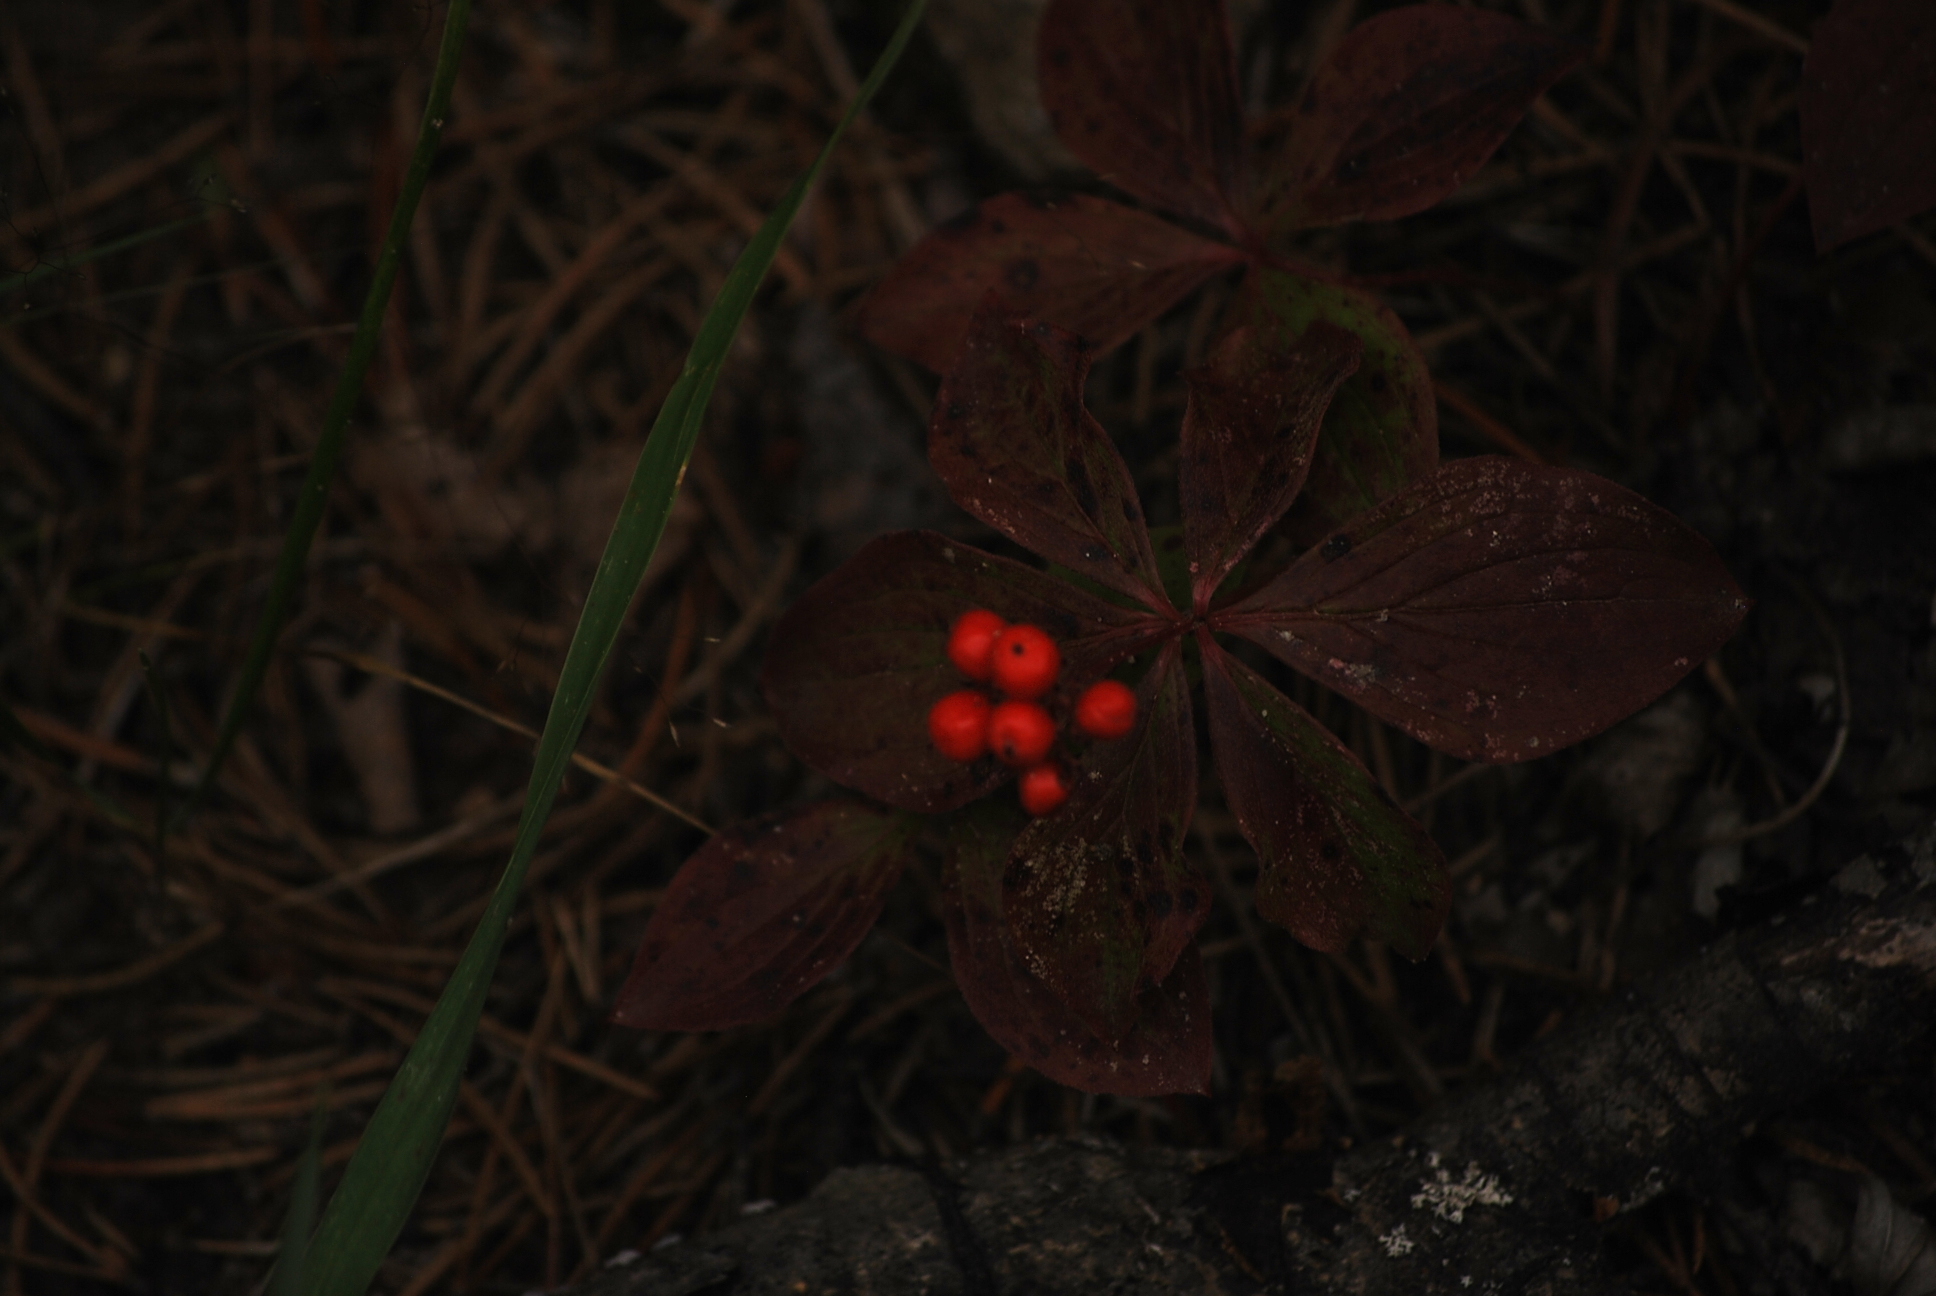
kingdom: Plantae
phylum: Tracheophyta
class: Magnoliopsida
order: Cornales
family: Cornaceae
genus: Cornus
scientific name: Cornus canadensis
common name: Creeping dogwood
